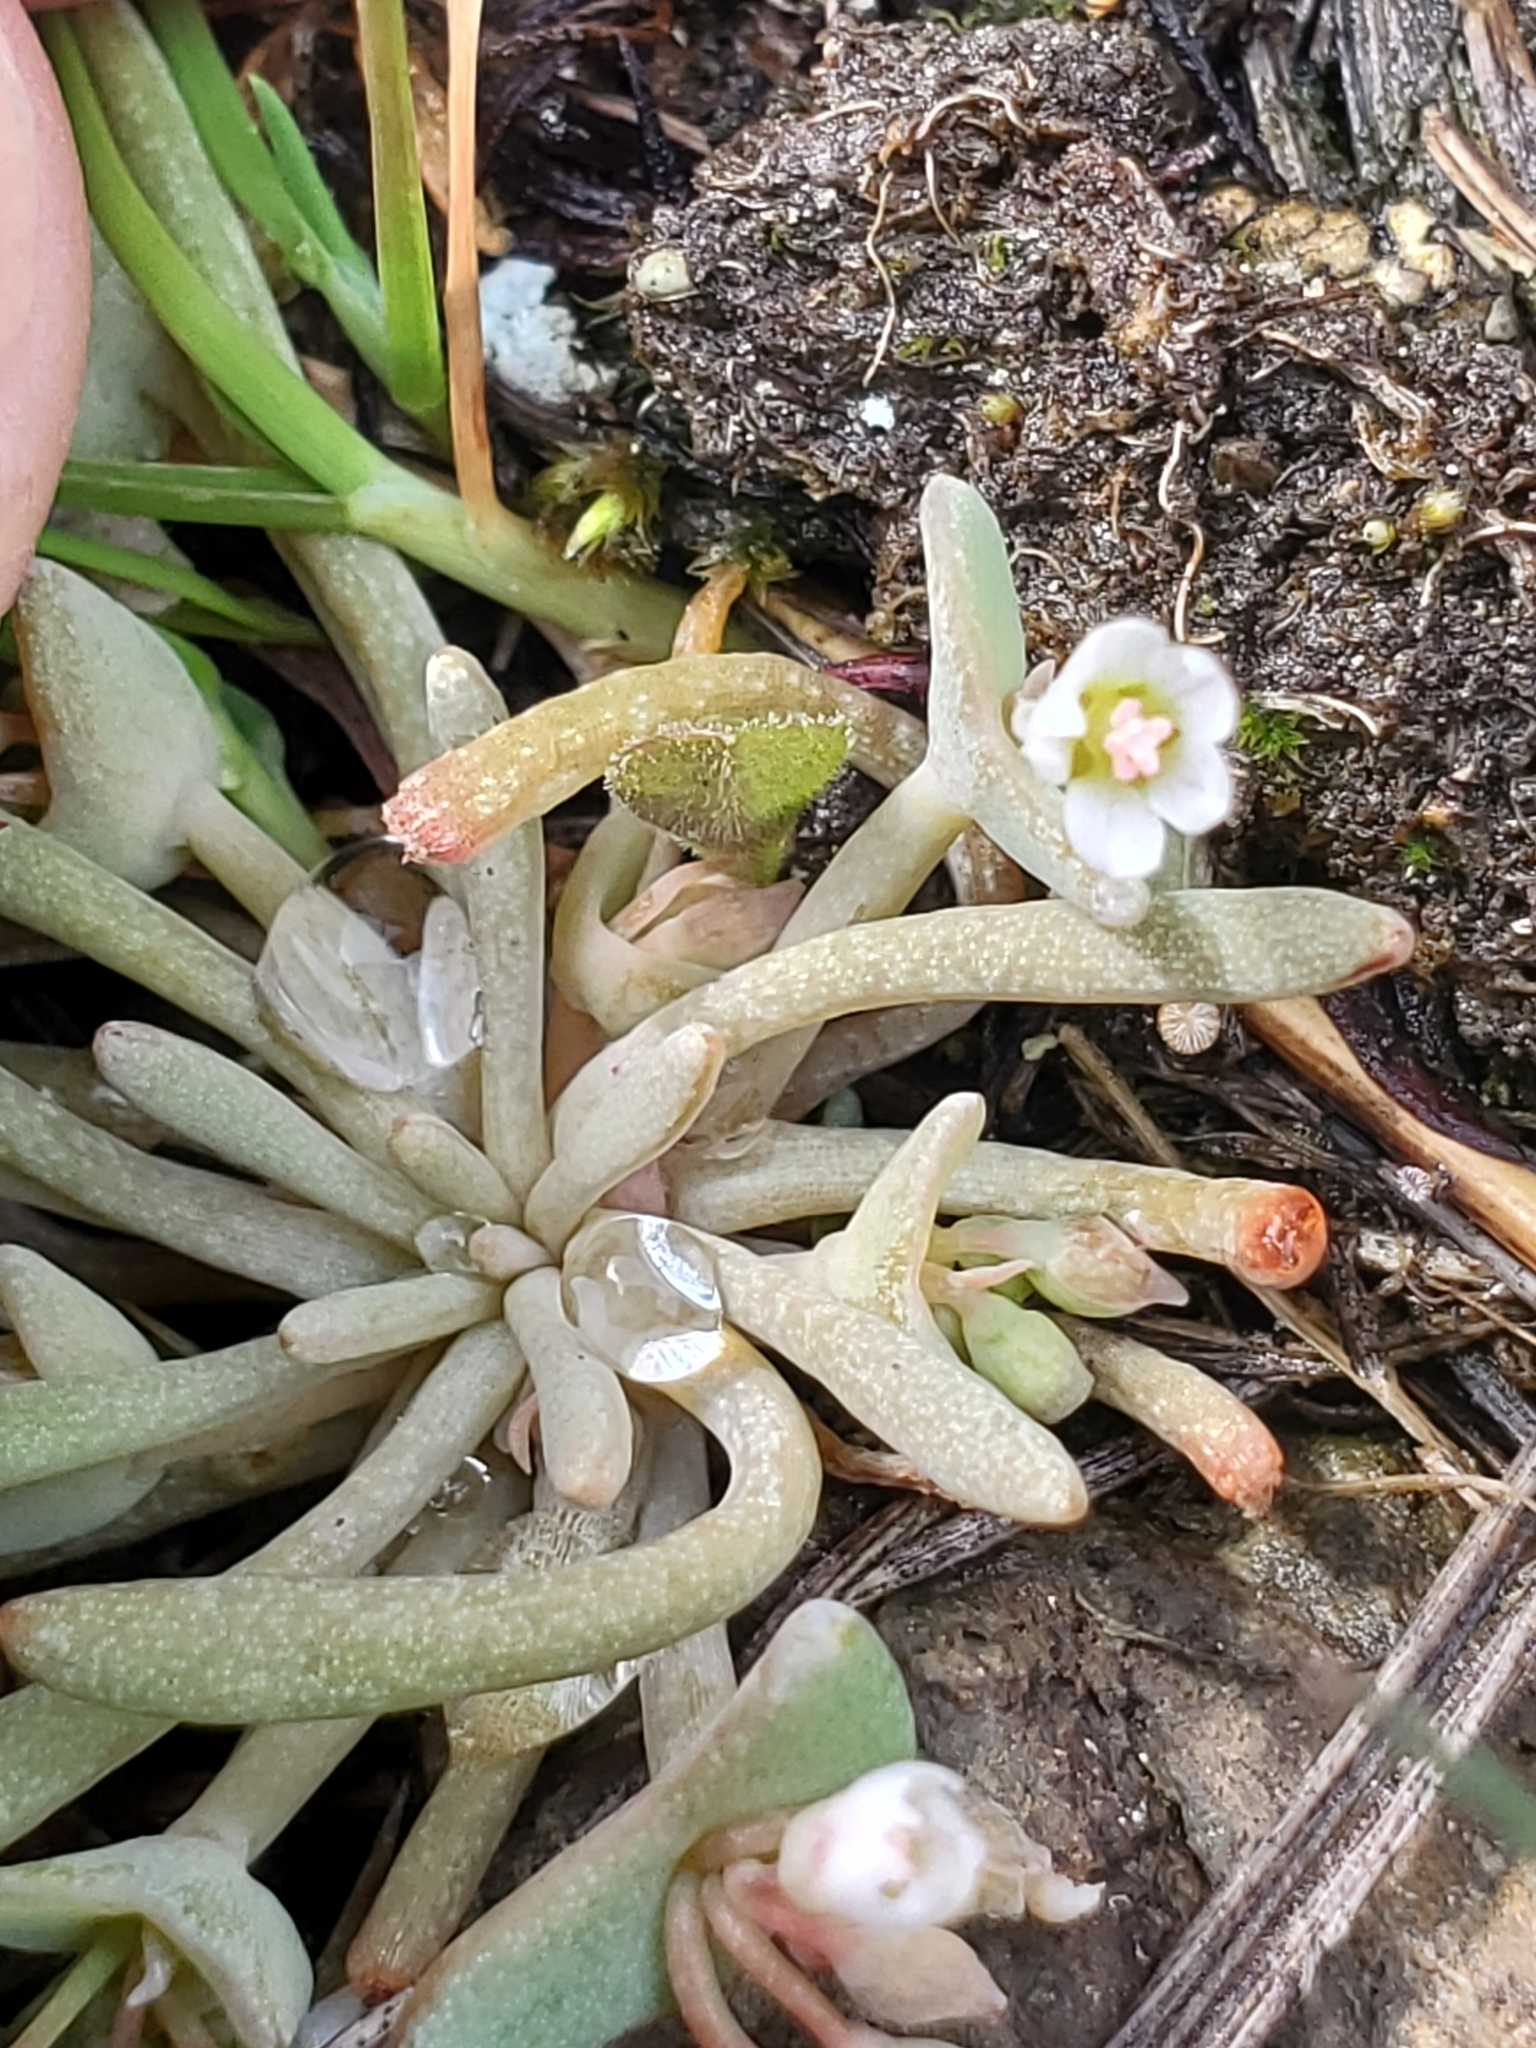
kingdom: Plantae
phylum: Tracheophyta
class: Magnoliopsida
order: Caryophyllales
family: Montiaceae
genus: Claytonia
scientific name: Claytonia exigua
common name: Pale spring beauty
